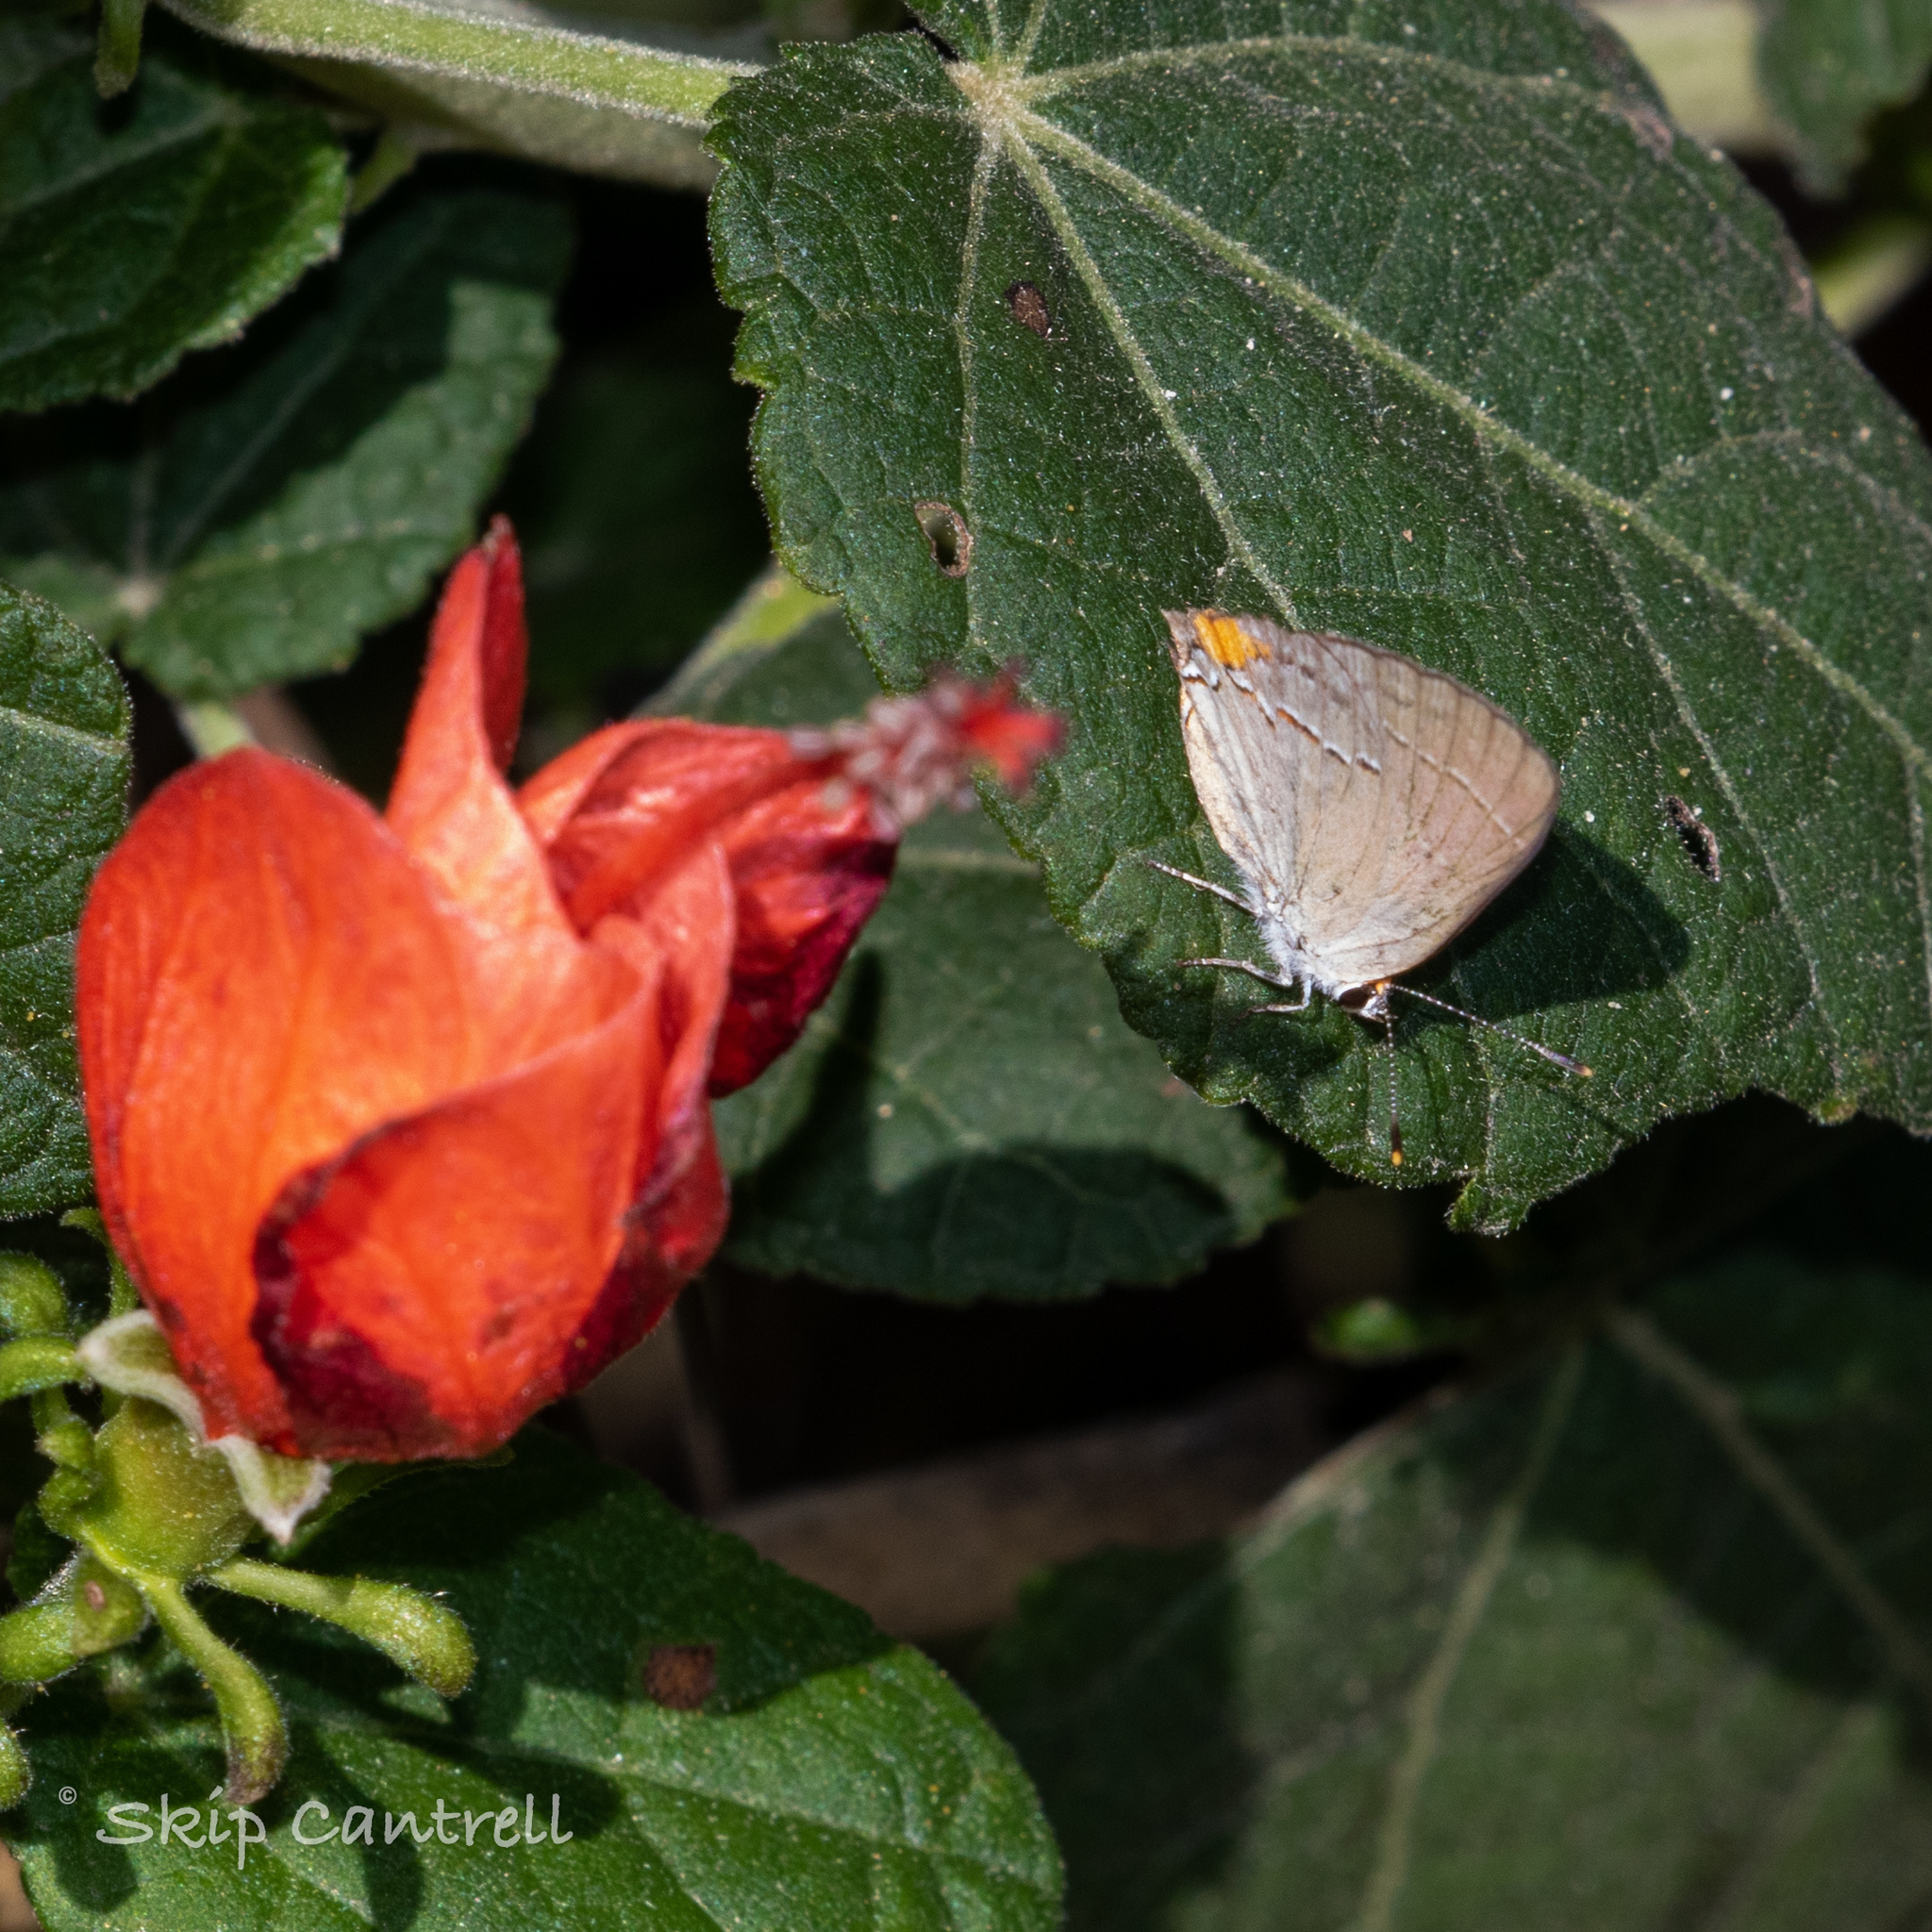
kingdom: Animalia
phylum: Arthropoda
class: Insecta
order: Lepidoptera
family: Lycaenidae
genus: Strymon
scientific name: Strymon melinus
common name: Gray hairstreak
